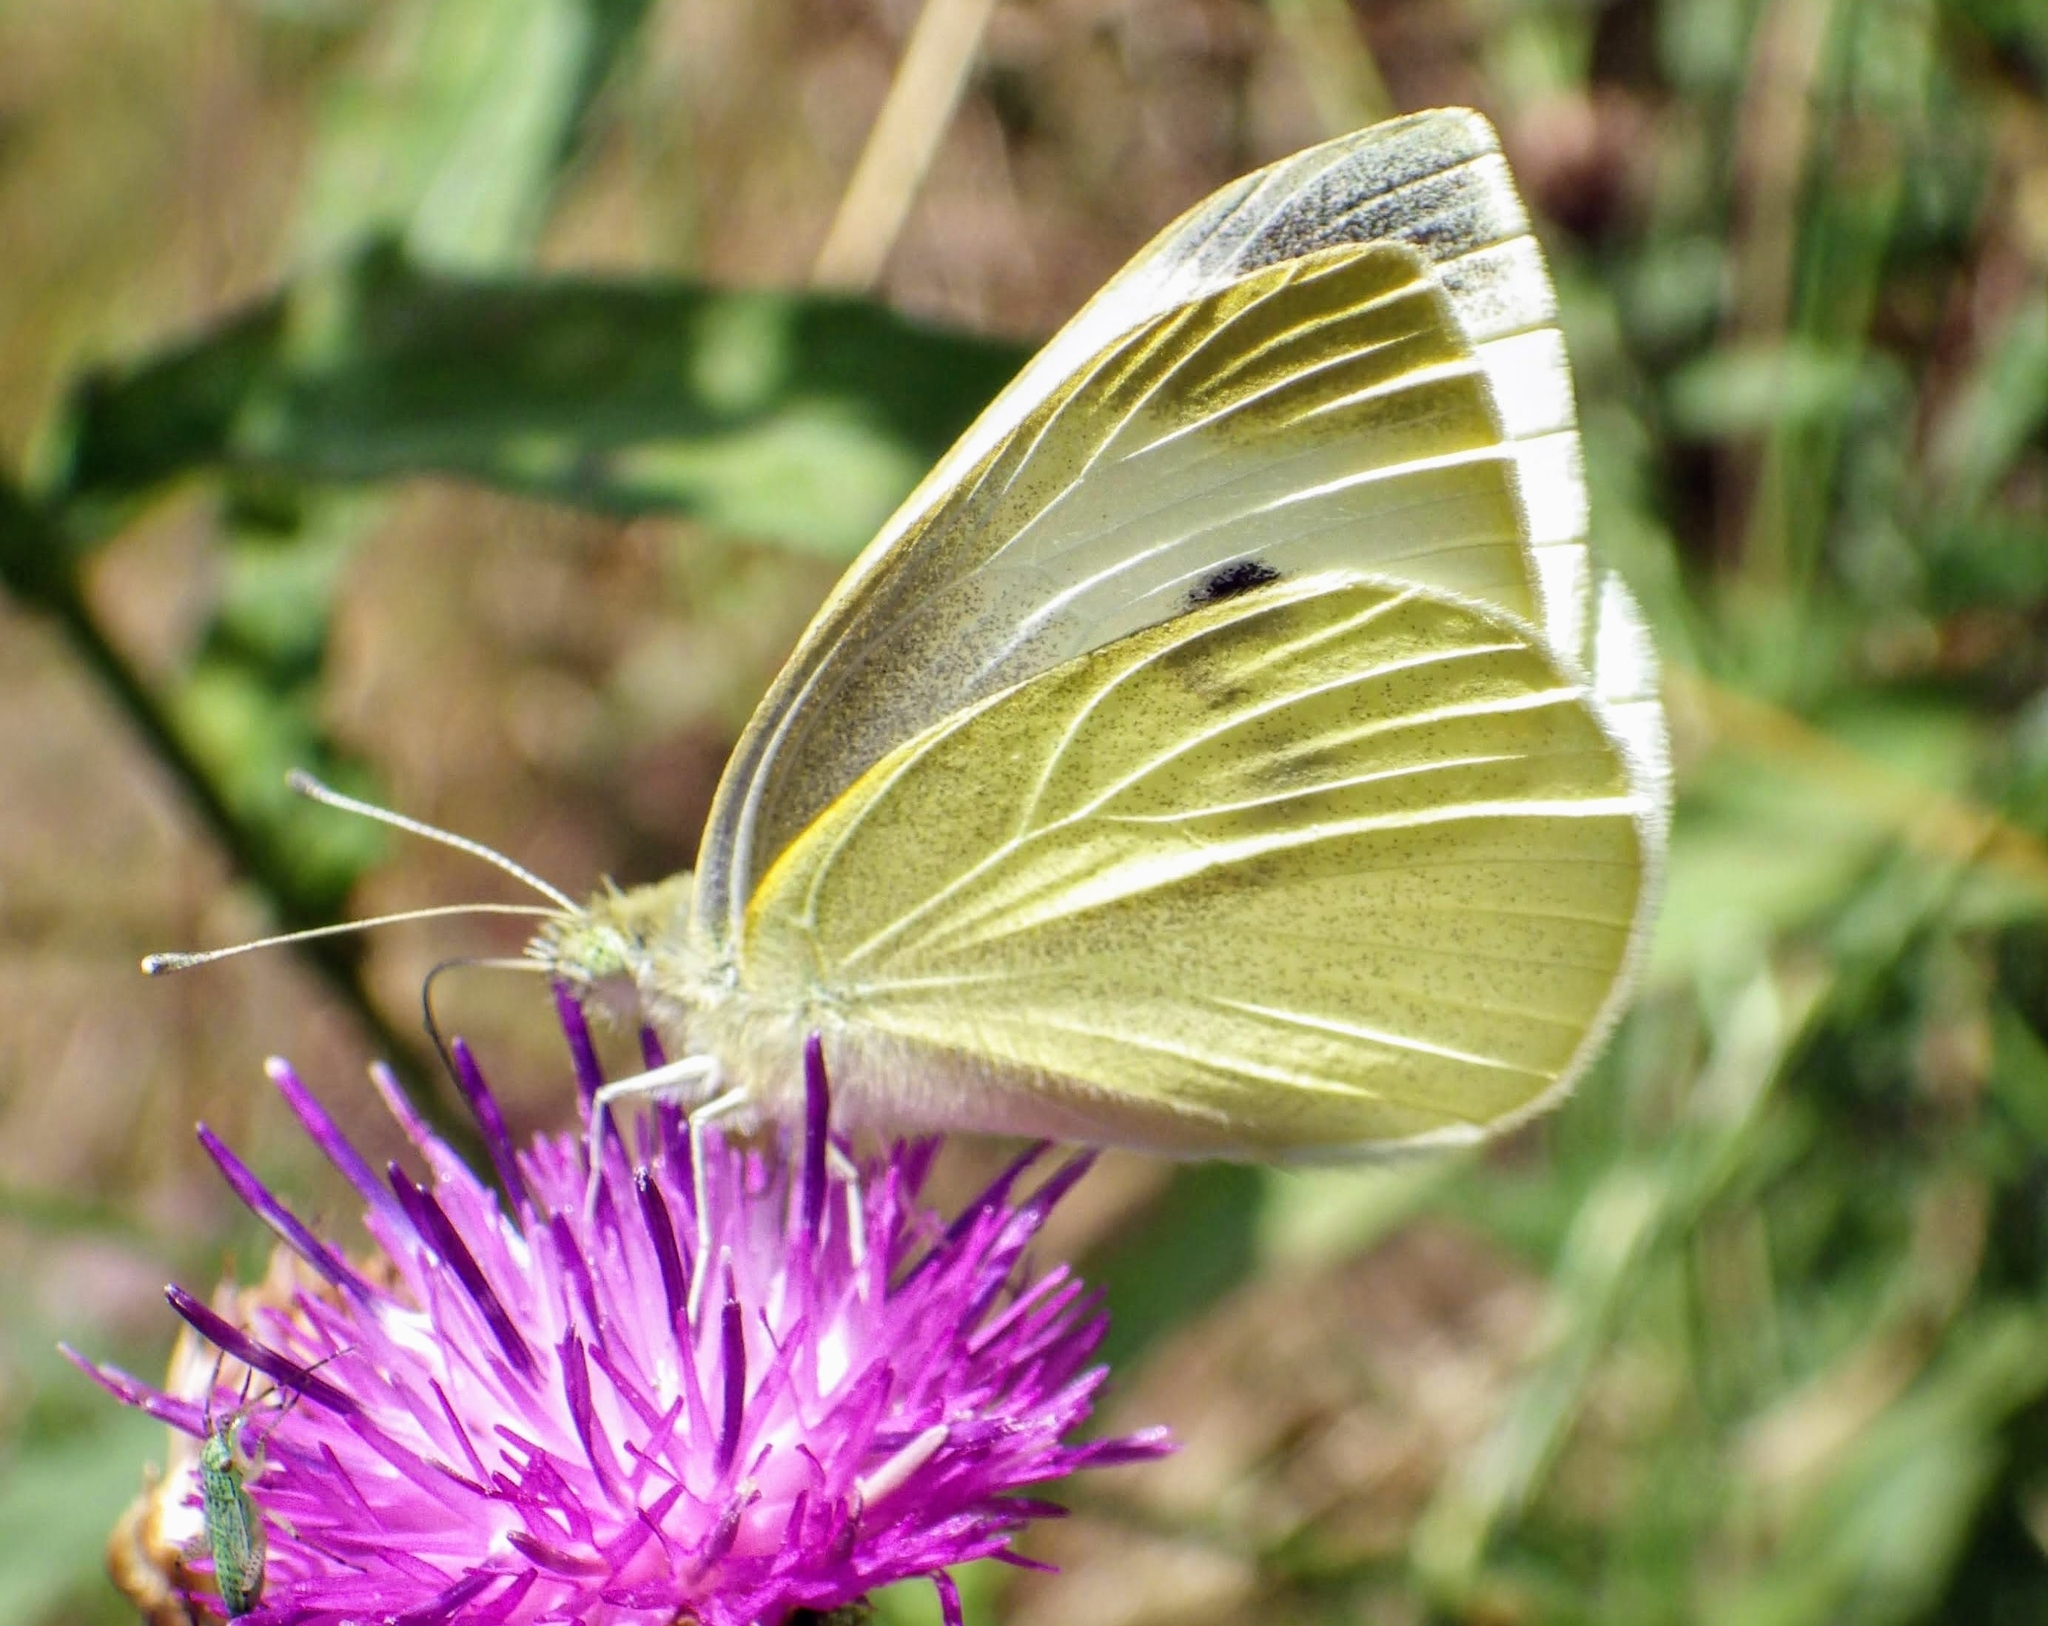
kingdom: Animalia
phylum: Arthropoda
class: Insecta
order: Lepidoptera
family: Pieridae
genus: Pieris
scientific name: Pieris rapae
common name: Small white
